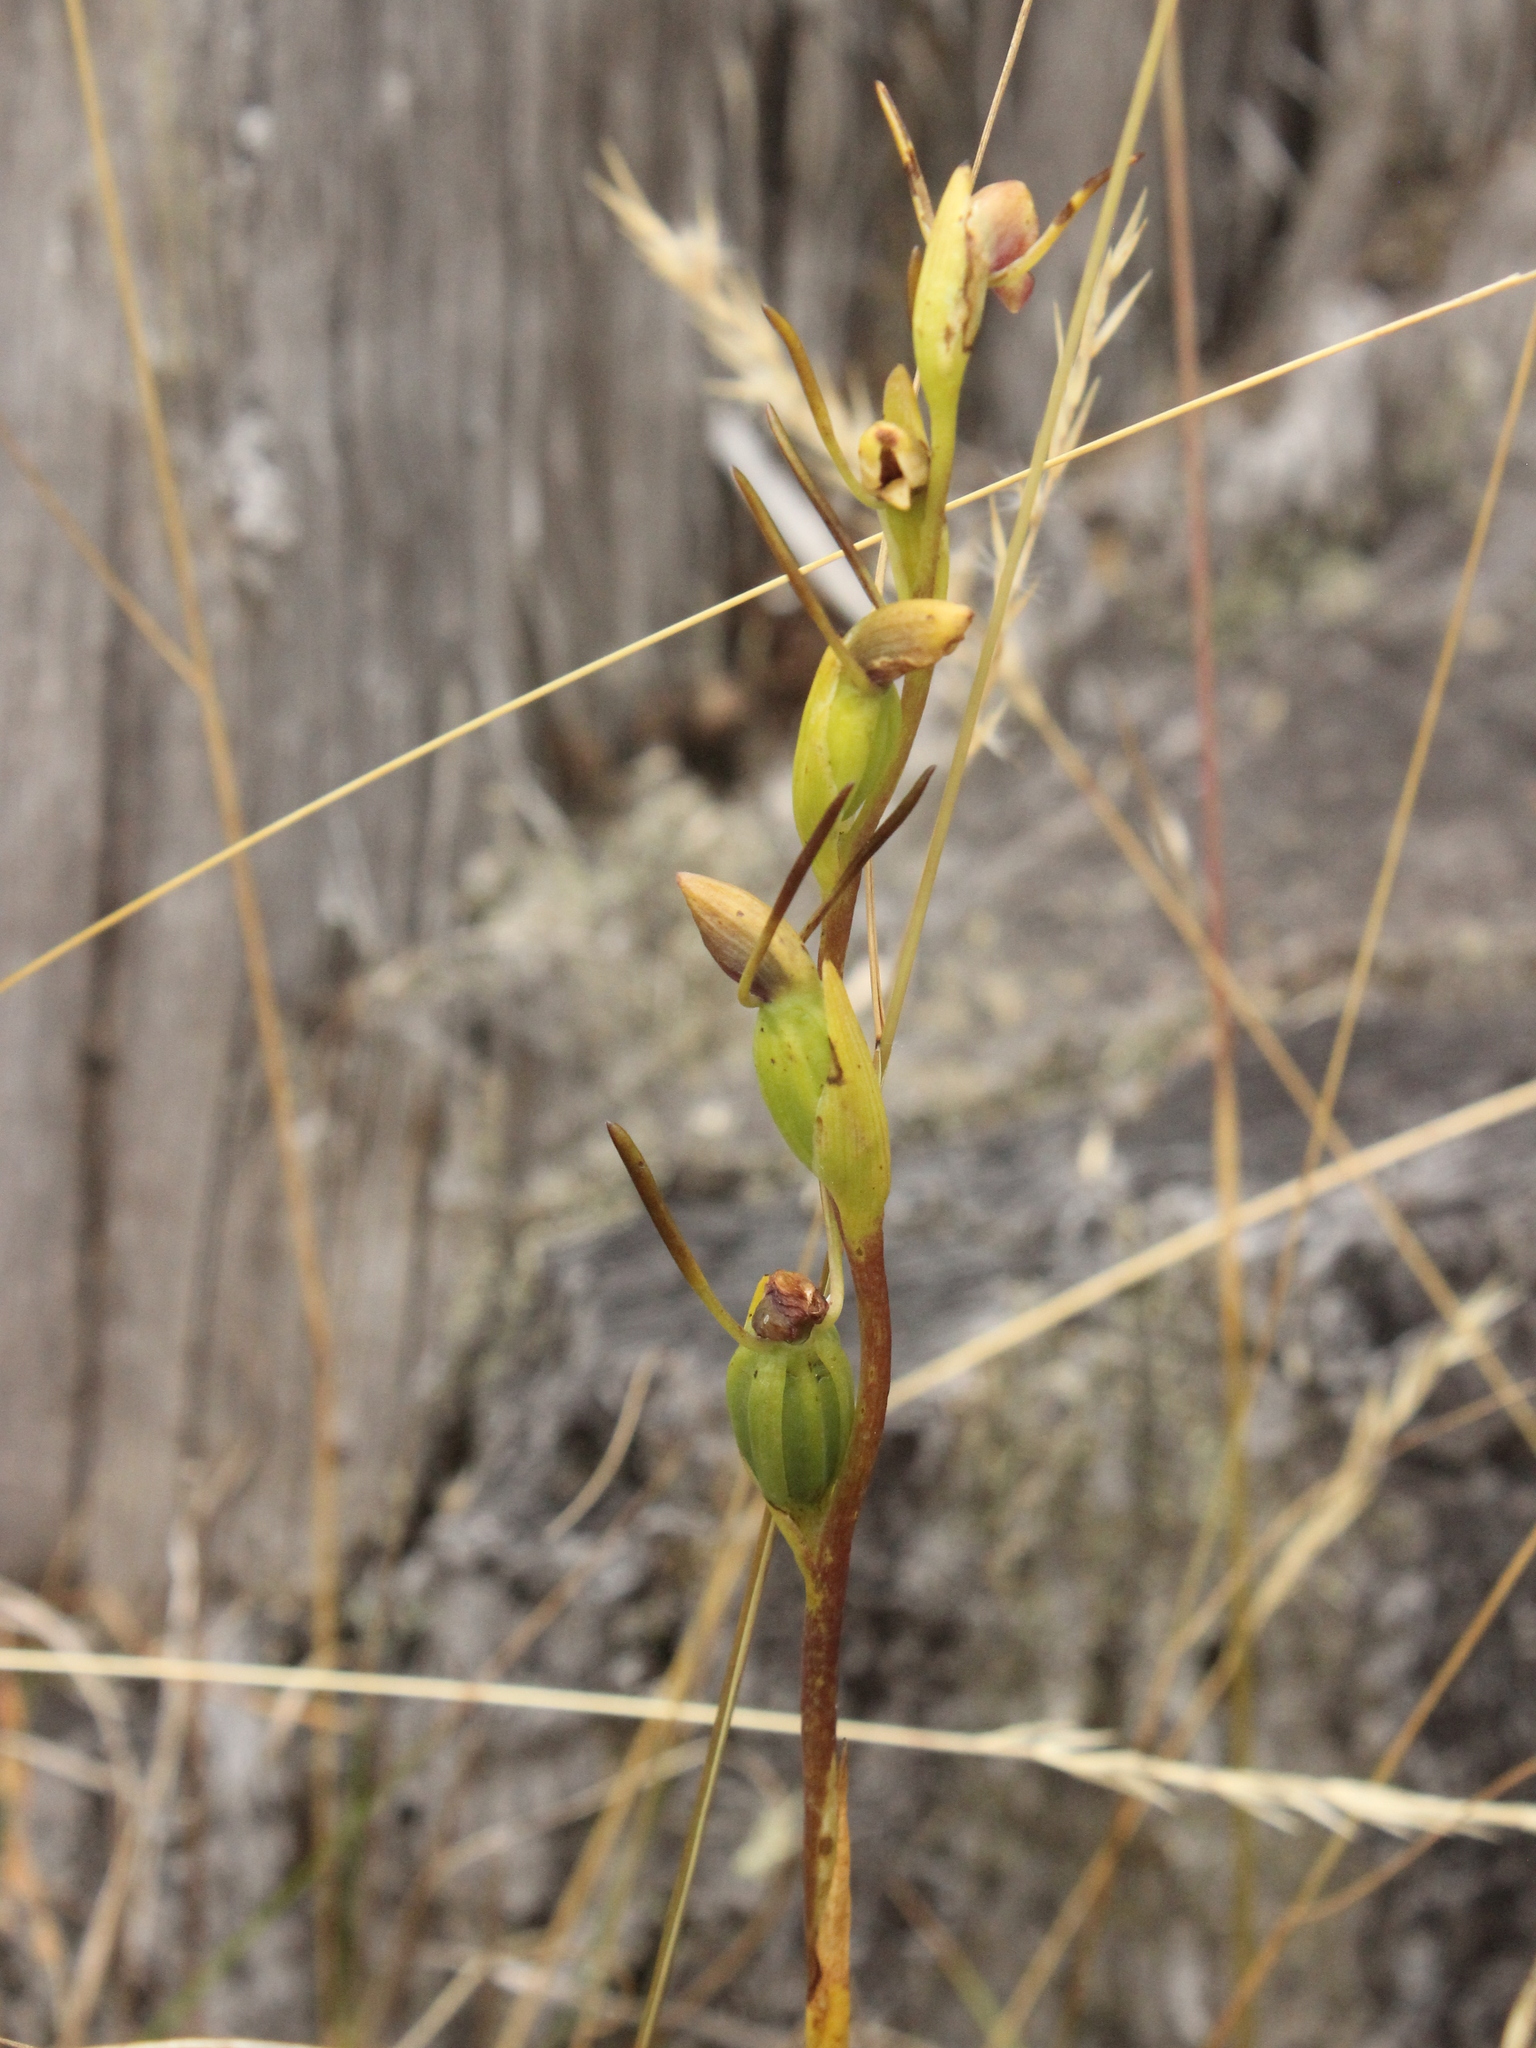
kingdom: Plantae
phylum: Tracheophyta
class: Liliopsida
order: Asparagales
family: Orchidaceae
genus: Orthoceras
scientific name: Orthoceras novae-zeelandiae
